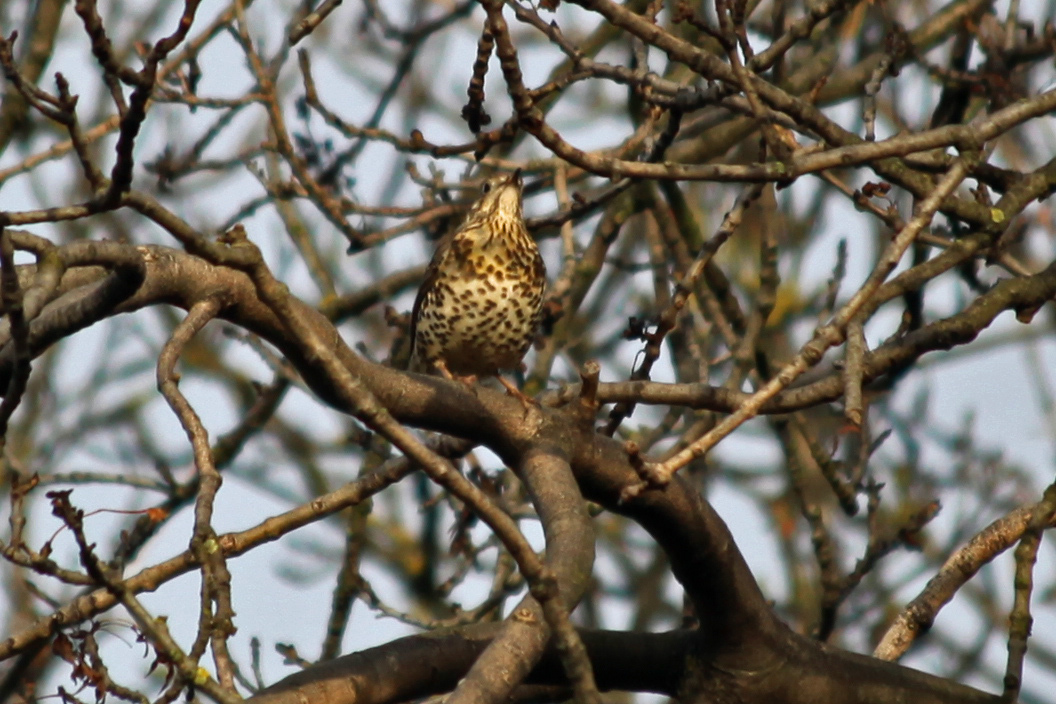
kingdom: Animalia
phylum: Chordata
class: Aves
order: Passeriformes
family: Turdidae
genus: Turdus
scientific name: Turdus viscivorus
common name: Mistle thrush
